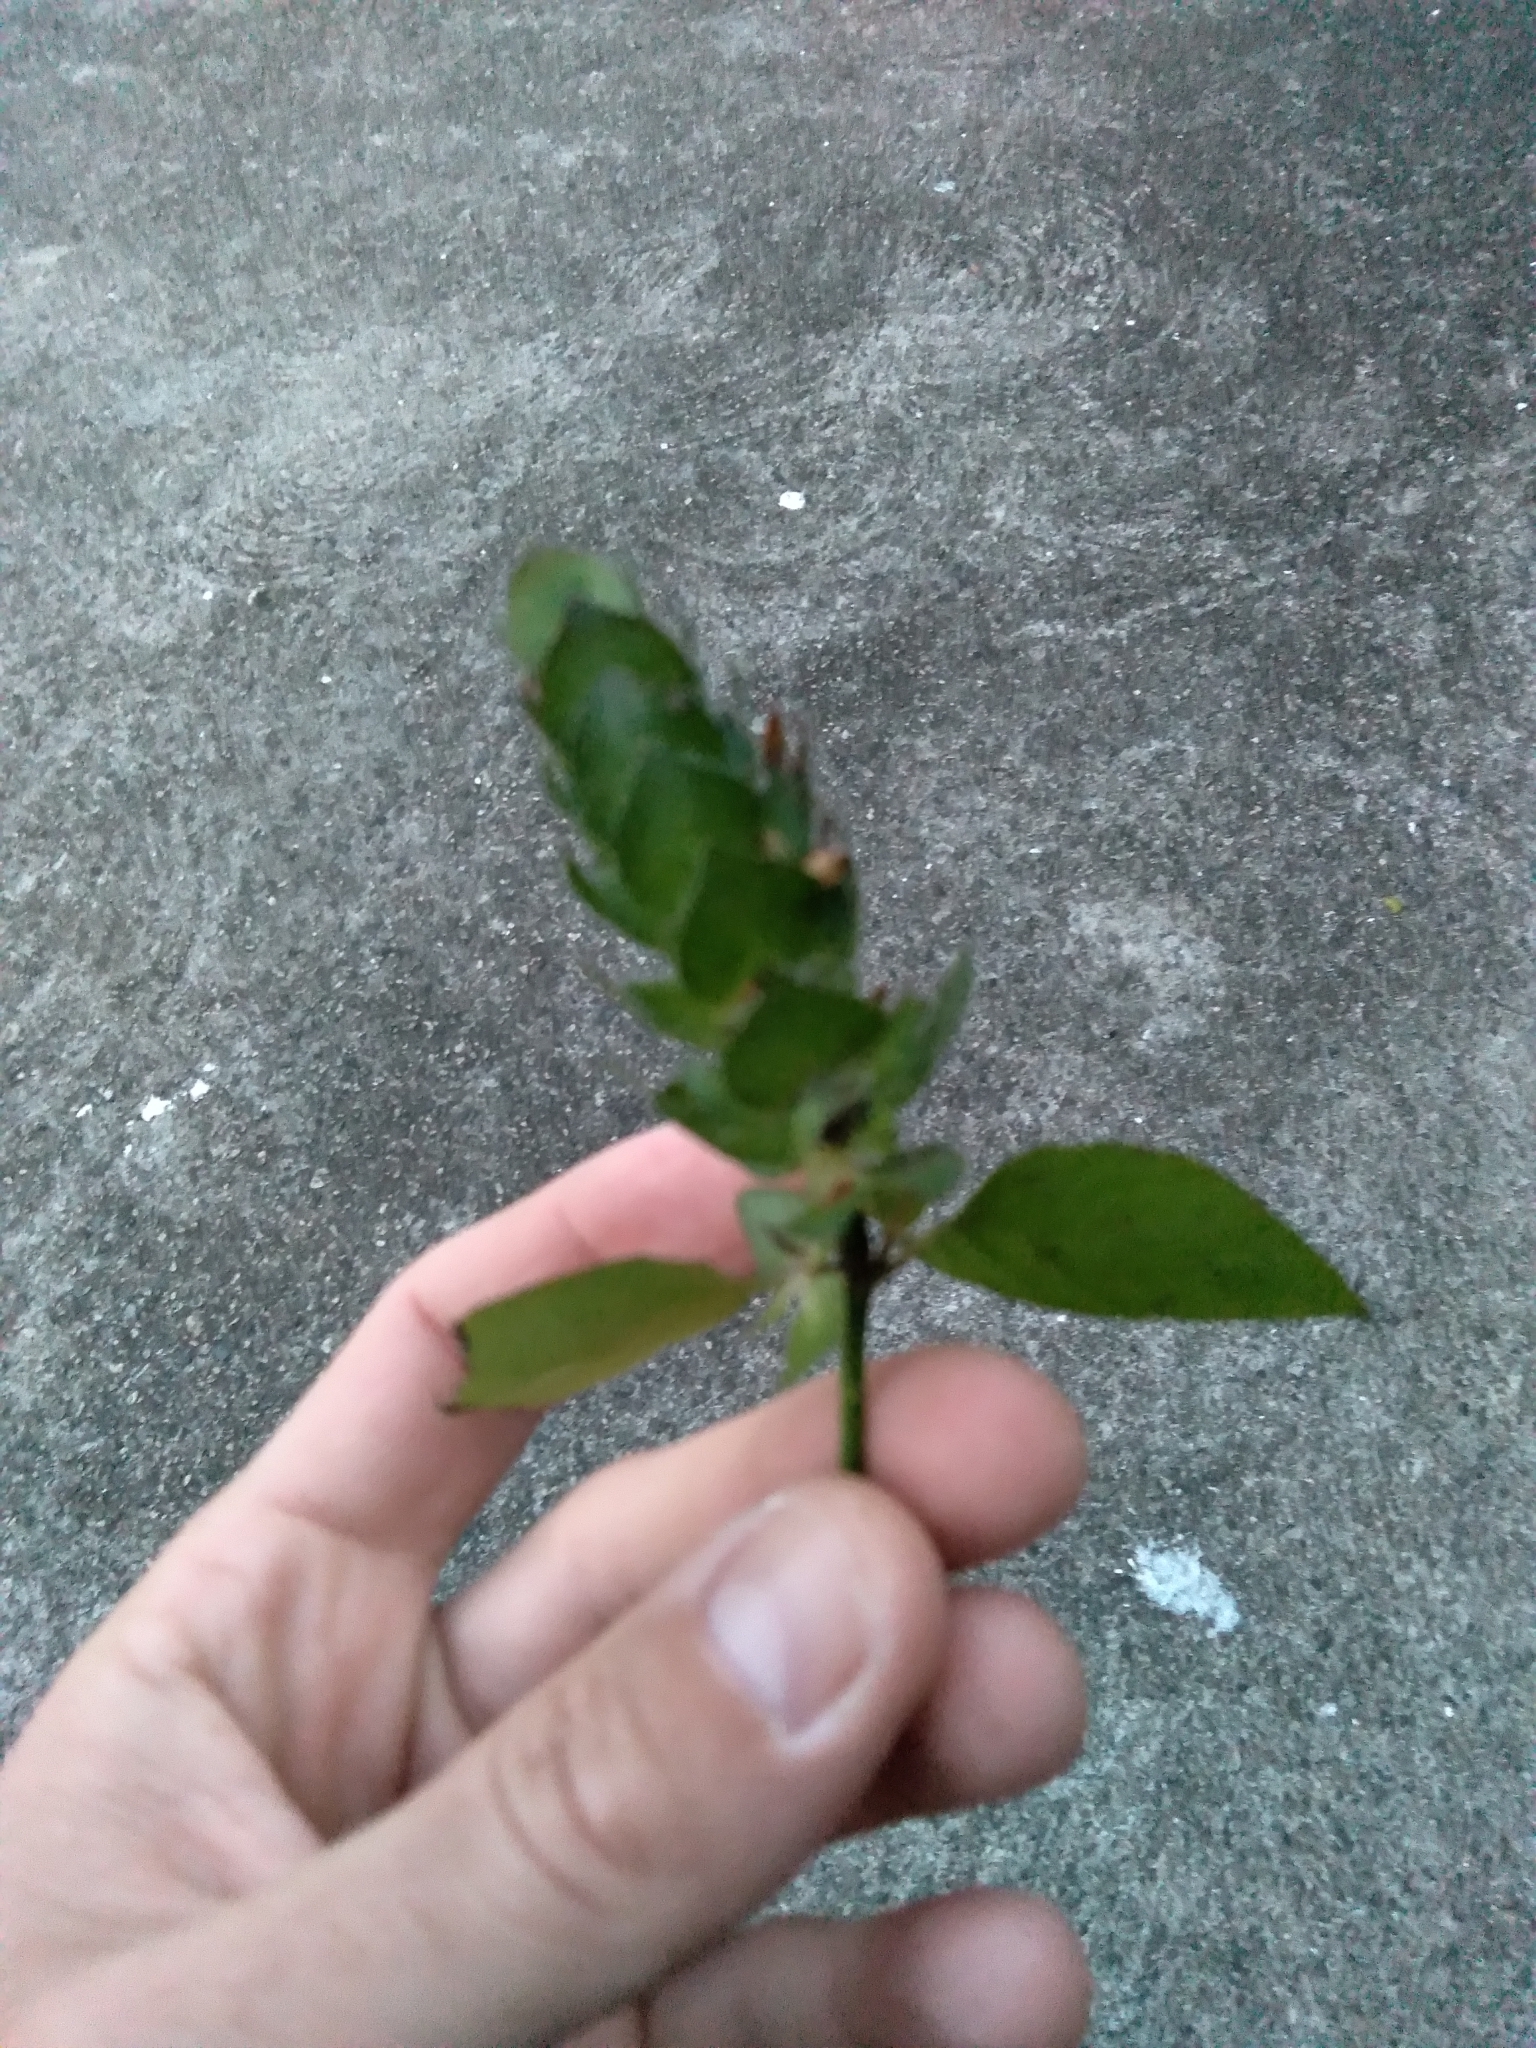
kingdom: Plantae
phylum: Tracheophyta
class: Magnoliopsida
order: Lamiales
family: Acanthaceae
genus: Ruellia
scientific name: Ruellia blechum
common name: Browne's blechum
